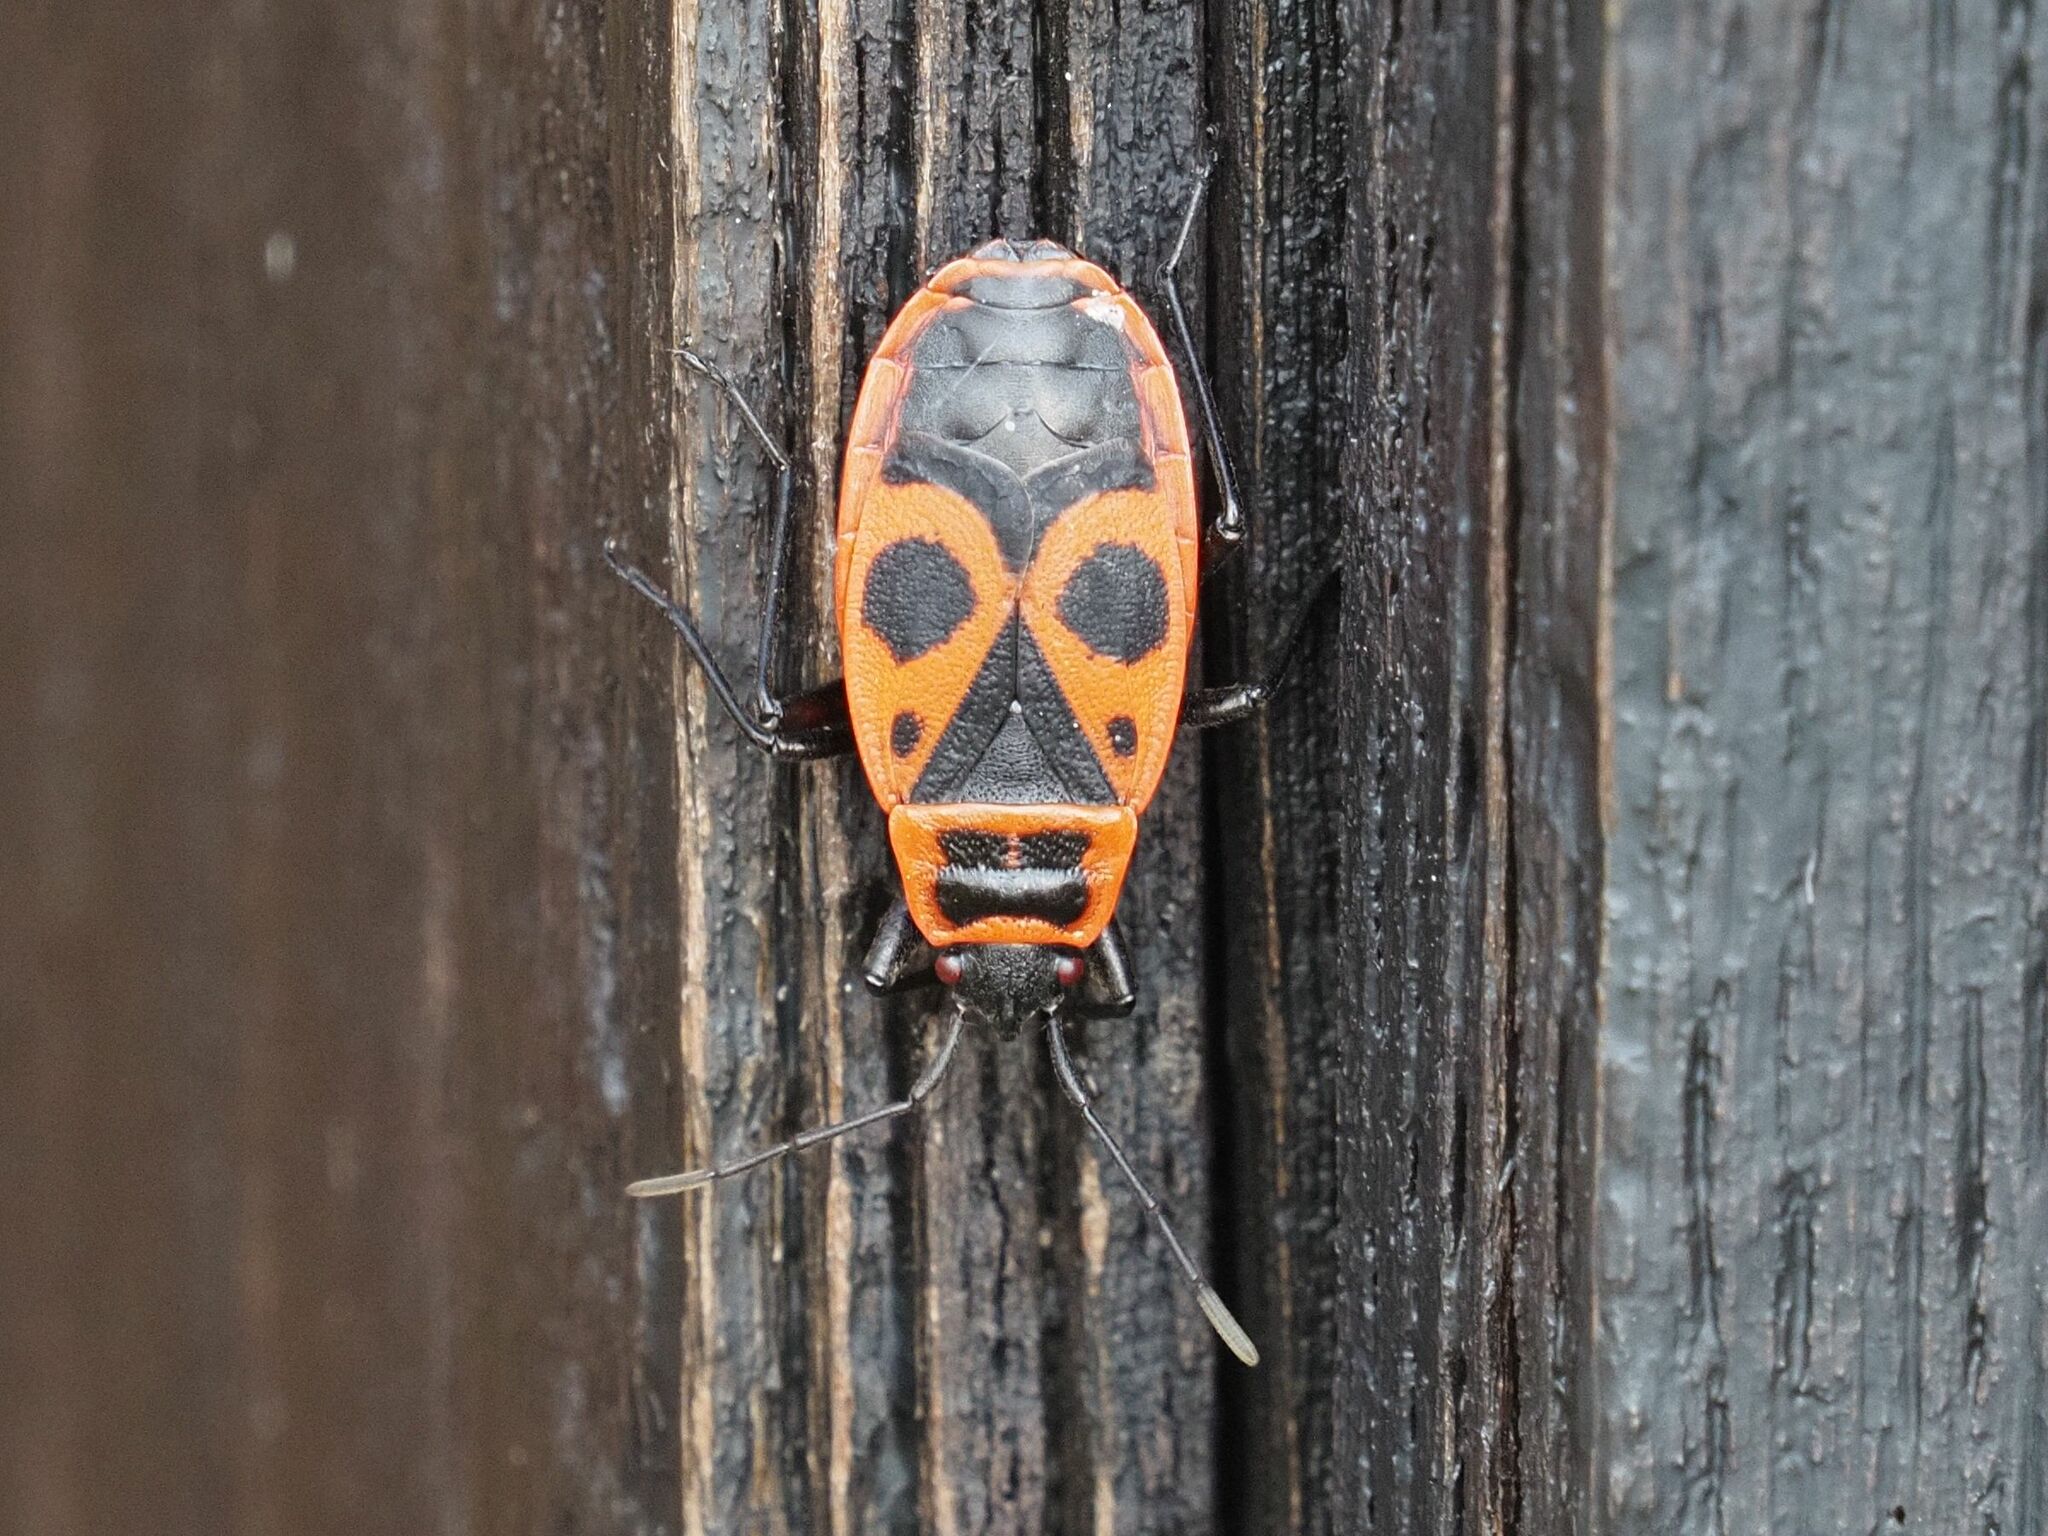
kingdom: Animalia
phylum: Arthropoda
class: Insecta
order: Hemiptera
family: Pyrrhocoridae
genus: Pyrrhocoris
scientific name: Pyrrhocoris apterus
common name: Firebug
